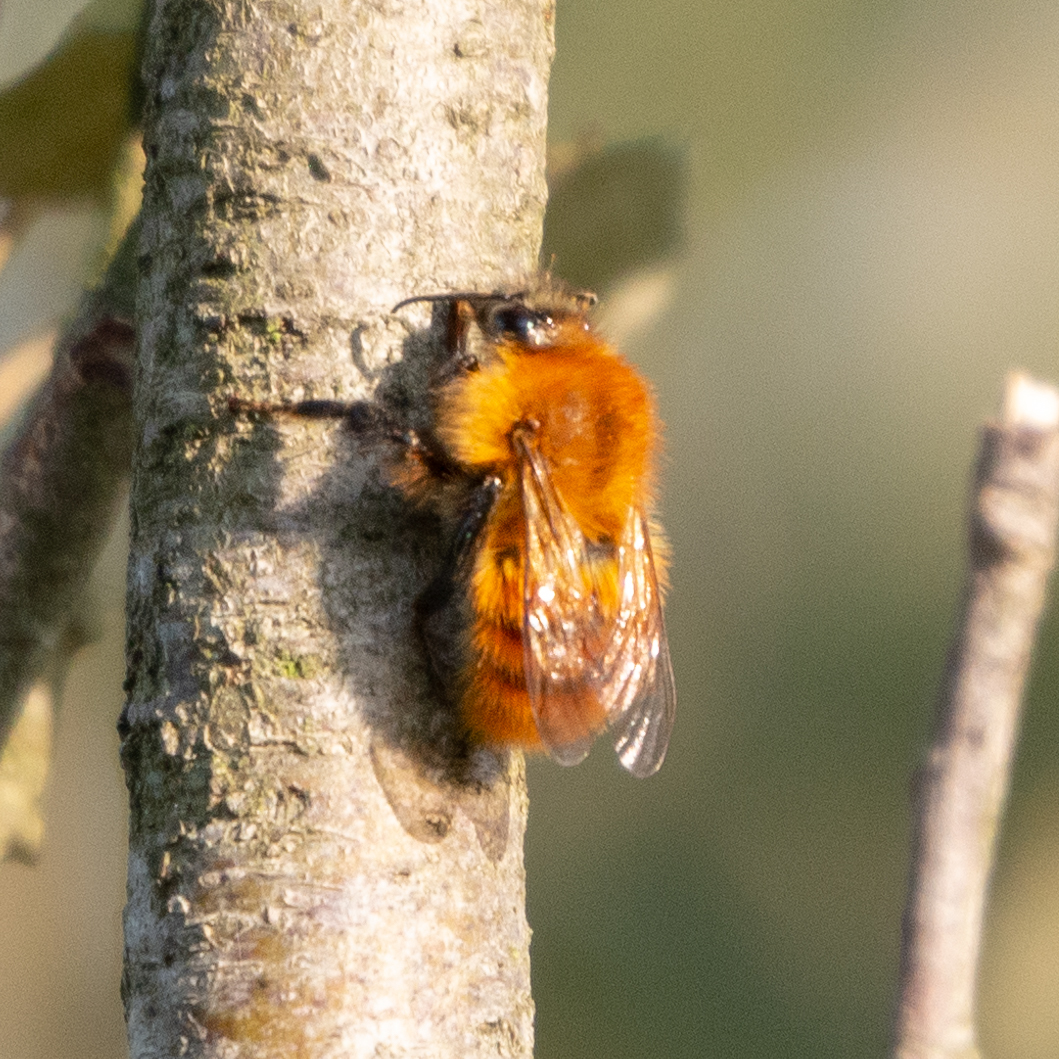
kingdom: Animalia
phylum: Arthropoda
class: Insecta
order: Hymenoptera
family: Apidae
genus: Bombus
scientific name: Bombus pascuorum
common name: Common carder bee
